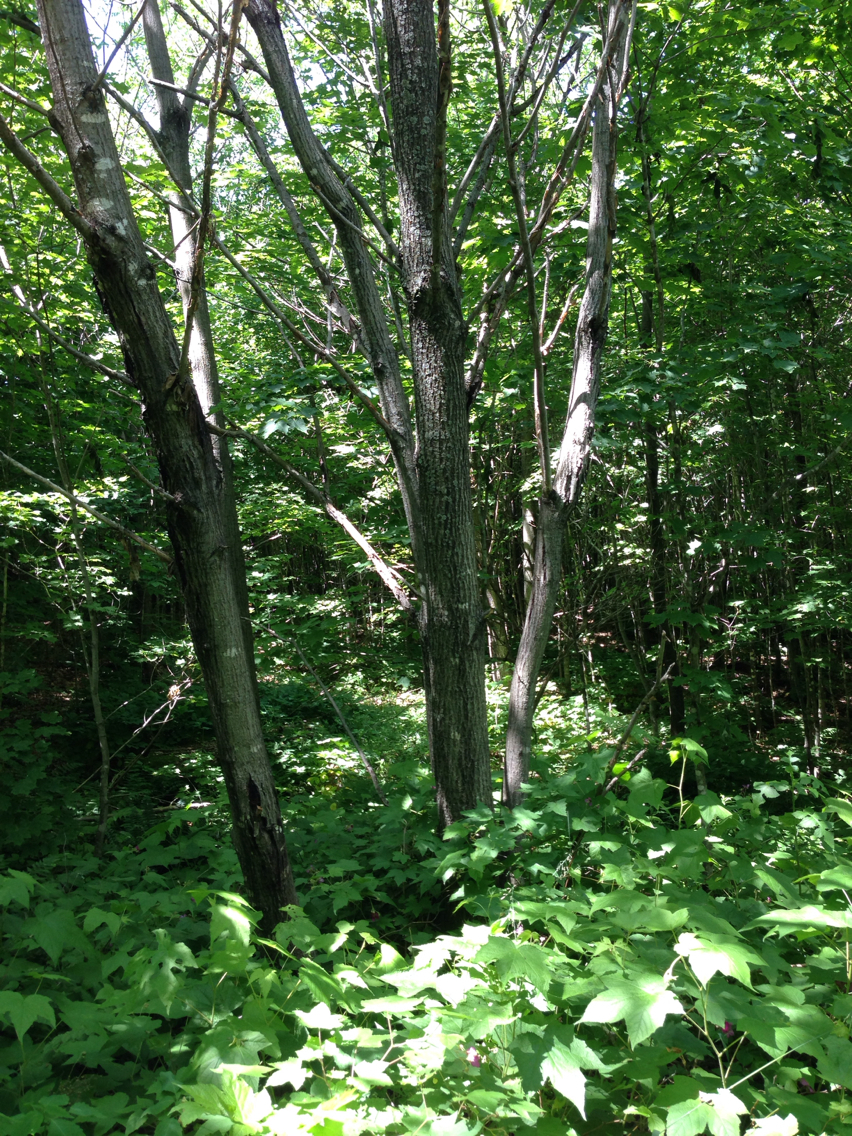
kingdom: Plantae
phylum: Tracheophyta
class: Magnoliopsida
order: Fagales
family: Juglandaceae
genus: Juglans
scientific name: Juglans cinerea
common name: Butternut
